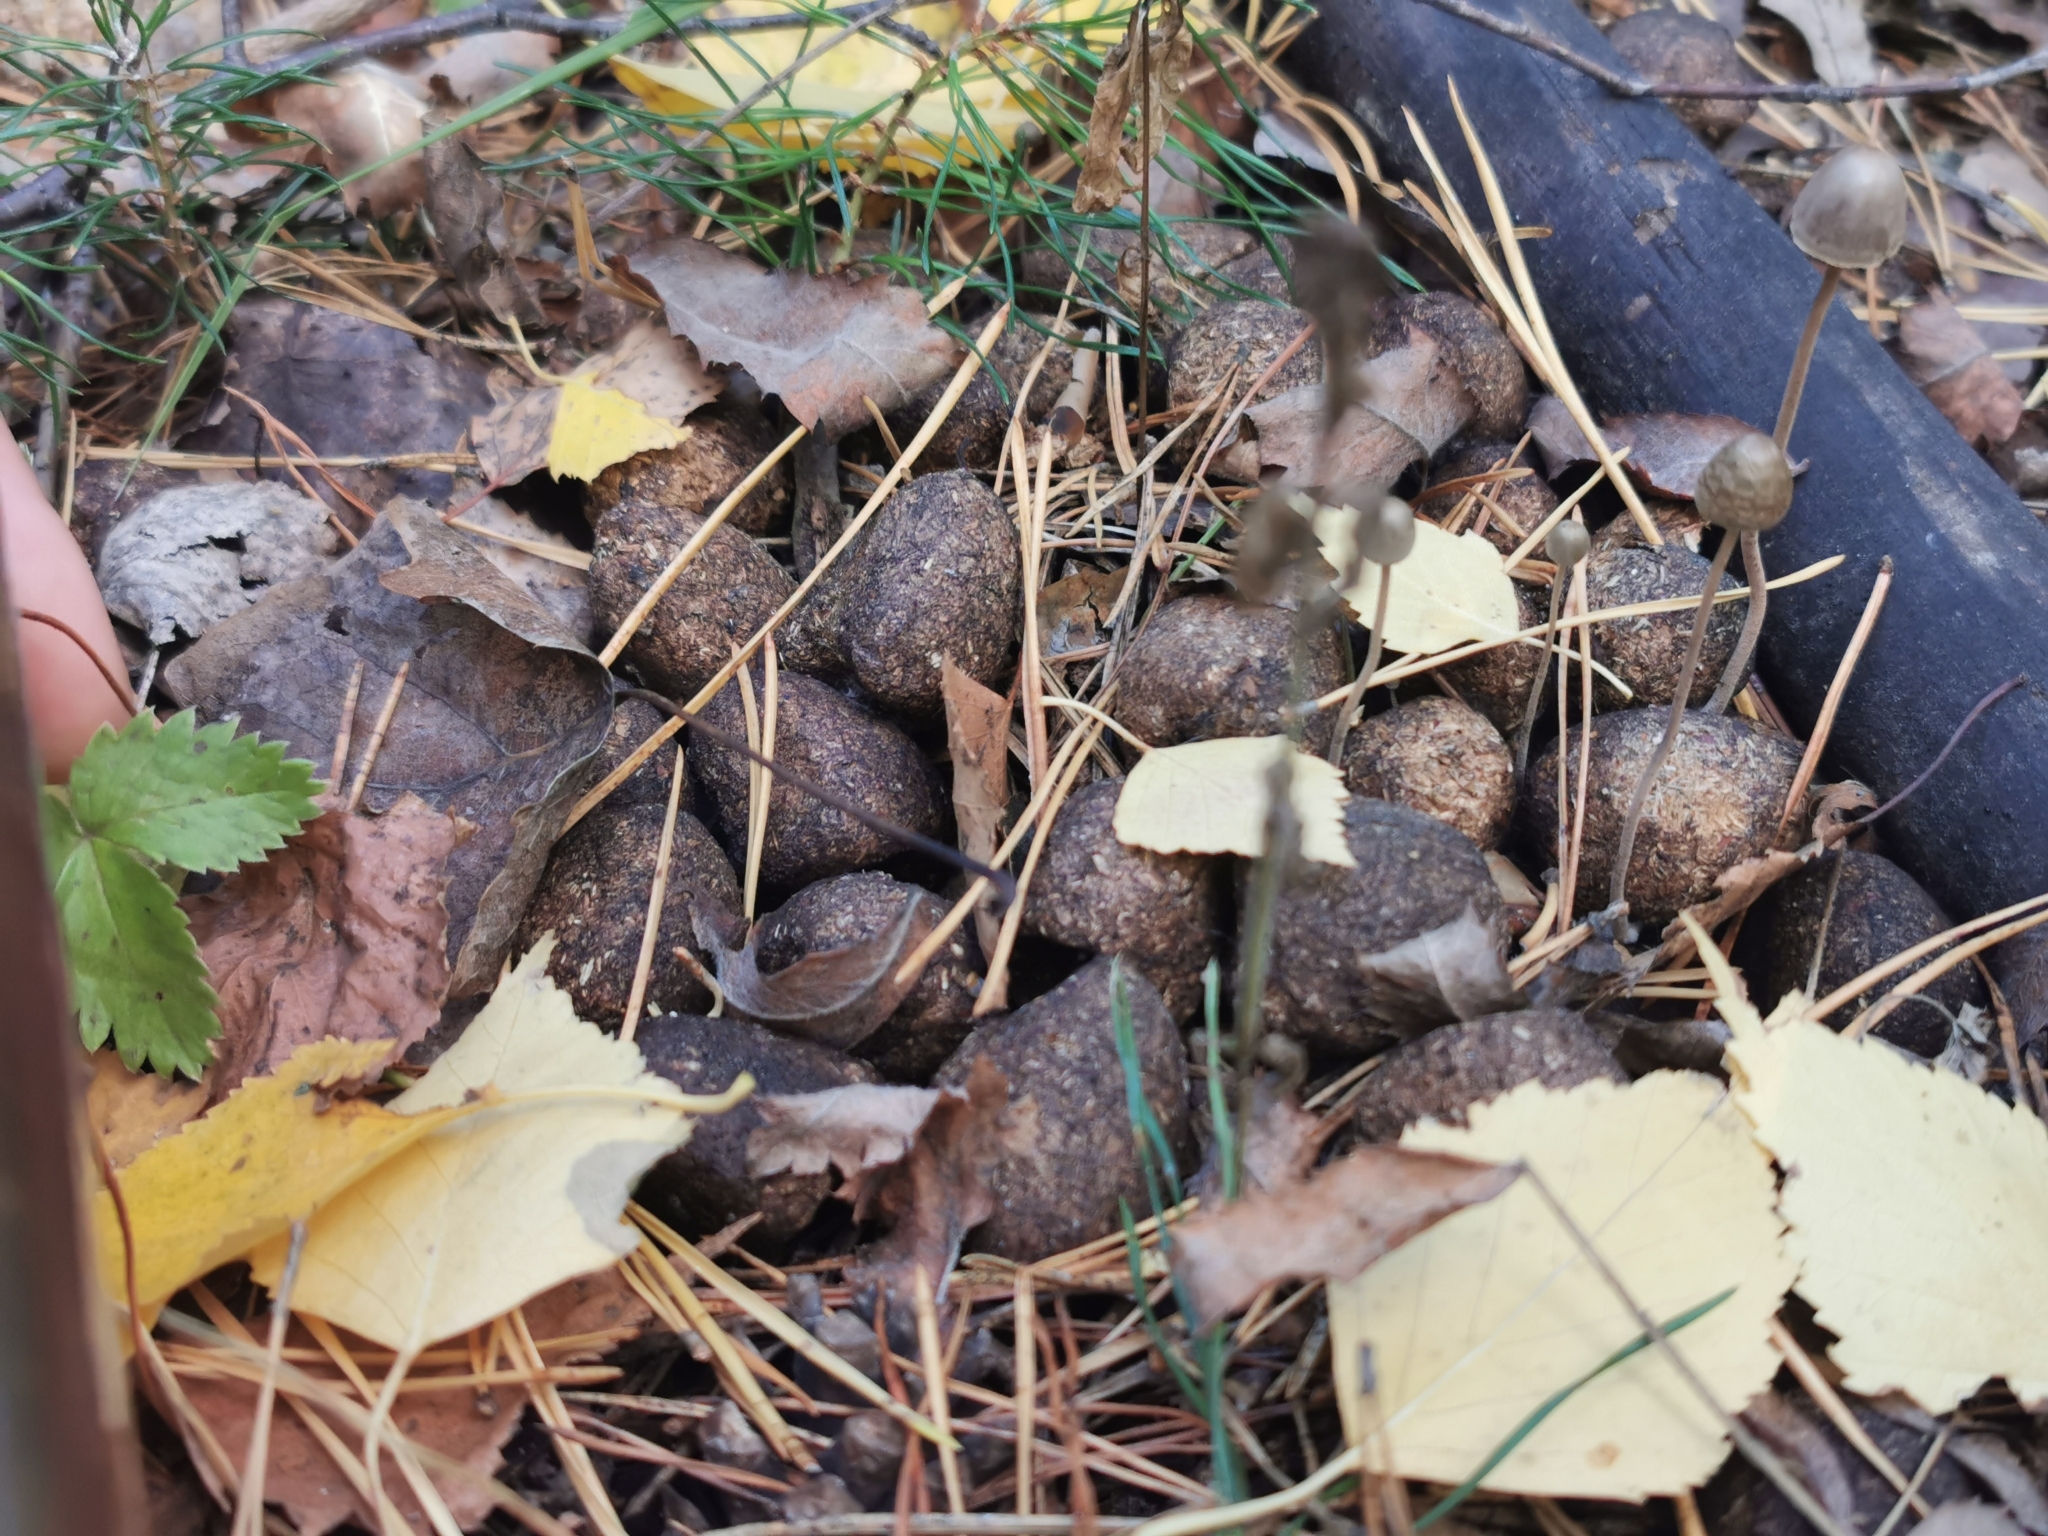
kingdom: Animalia
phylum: Chordata
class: Mammalia
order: Artiodactyla
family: Cervidae
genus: Alces
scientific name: Alces alces
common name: Moose
